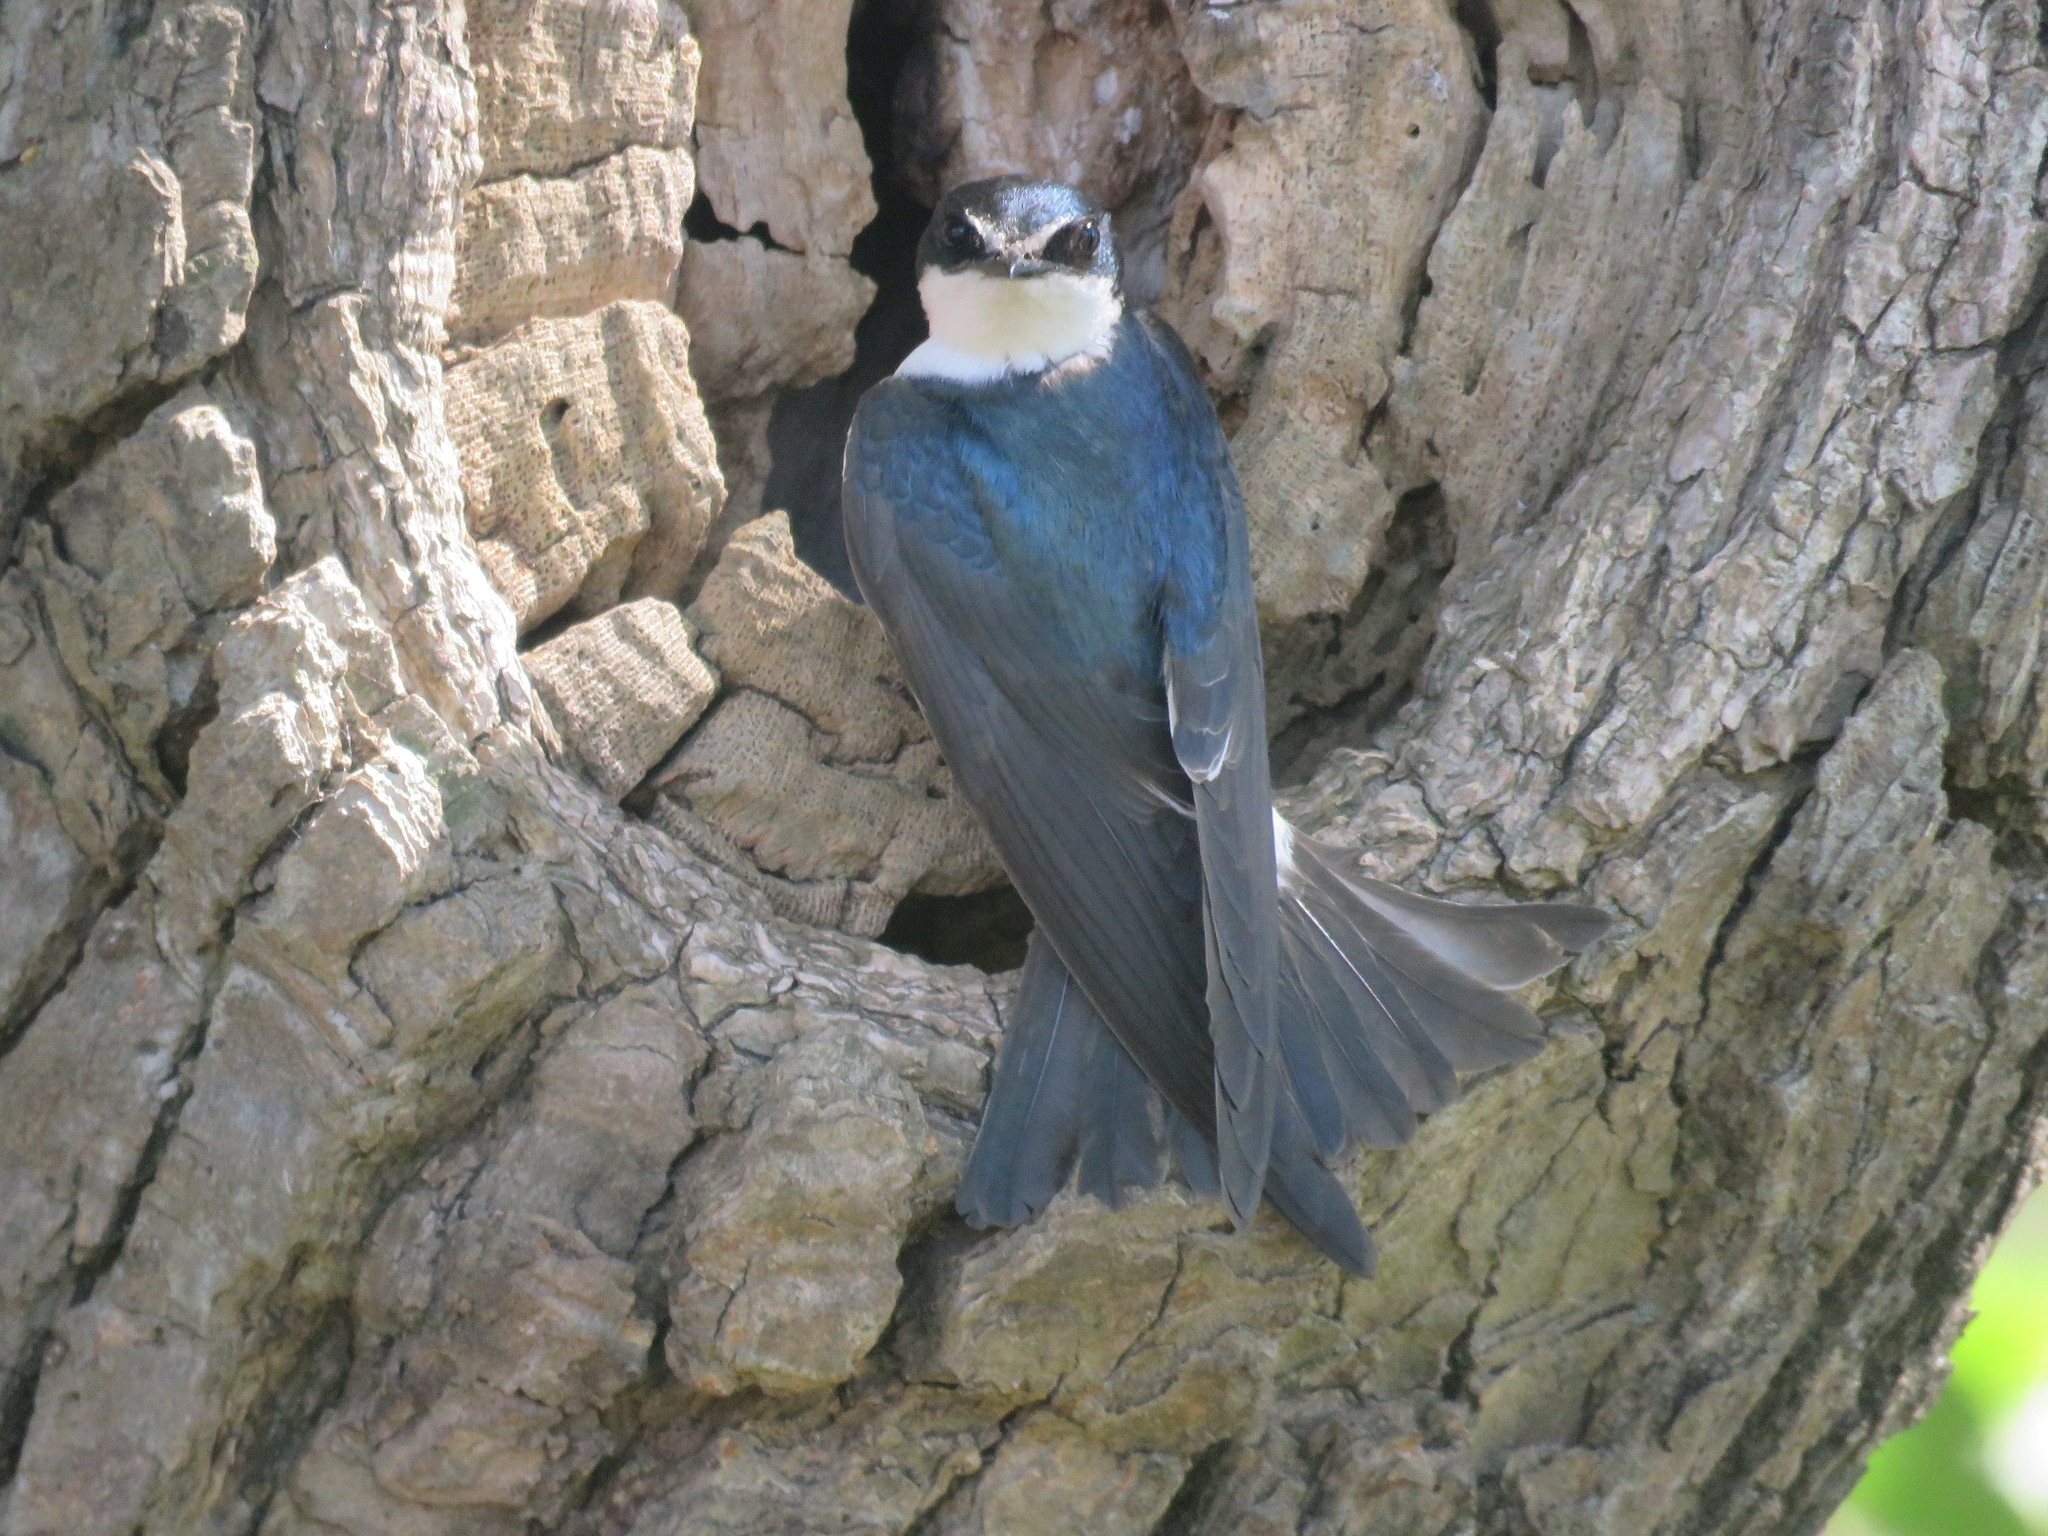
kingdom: Animalia
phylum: Chordata
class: Aves
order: Passeriformes
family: Hirundinidae
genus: Tachycineta
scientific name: Tachycineta leucorrhoa
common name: White-rumped swallow
